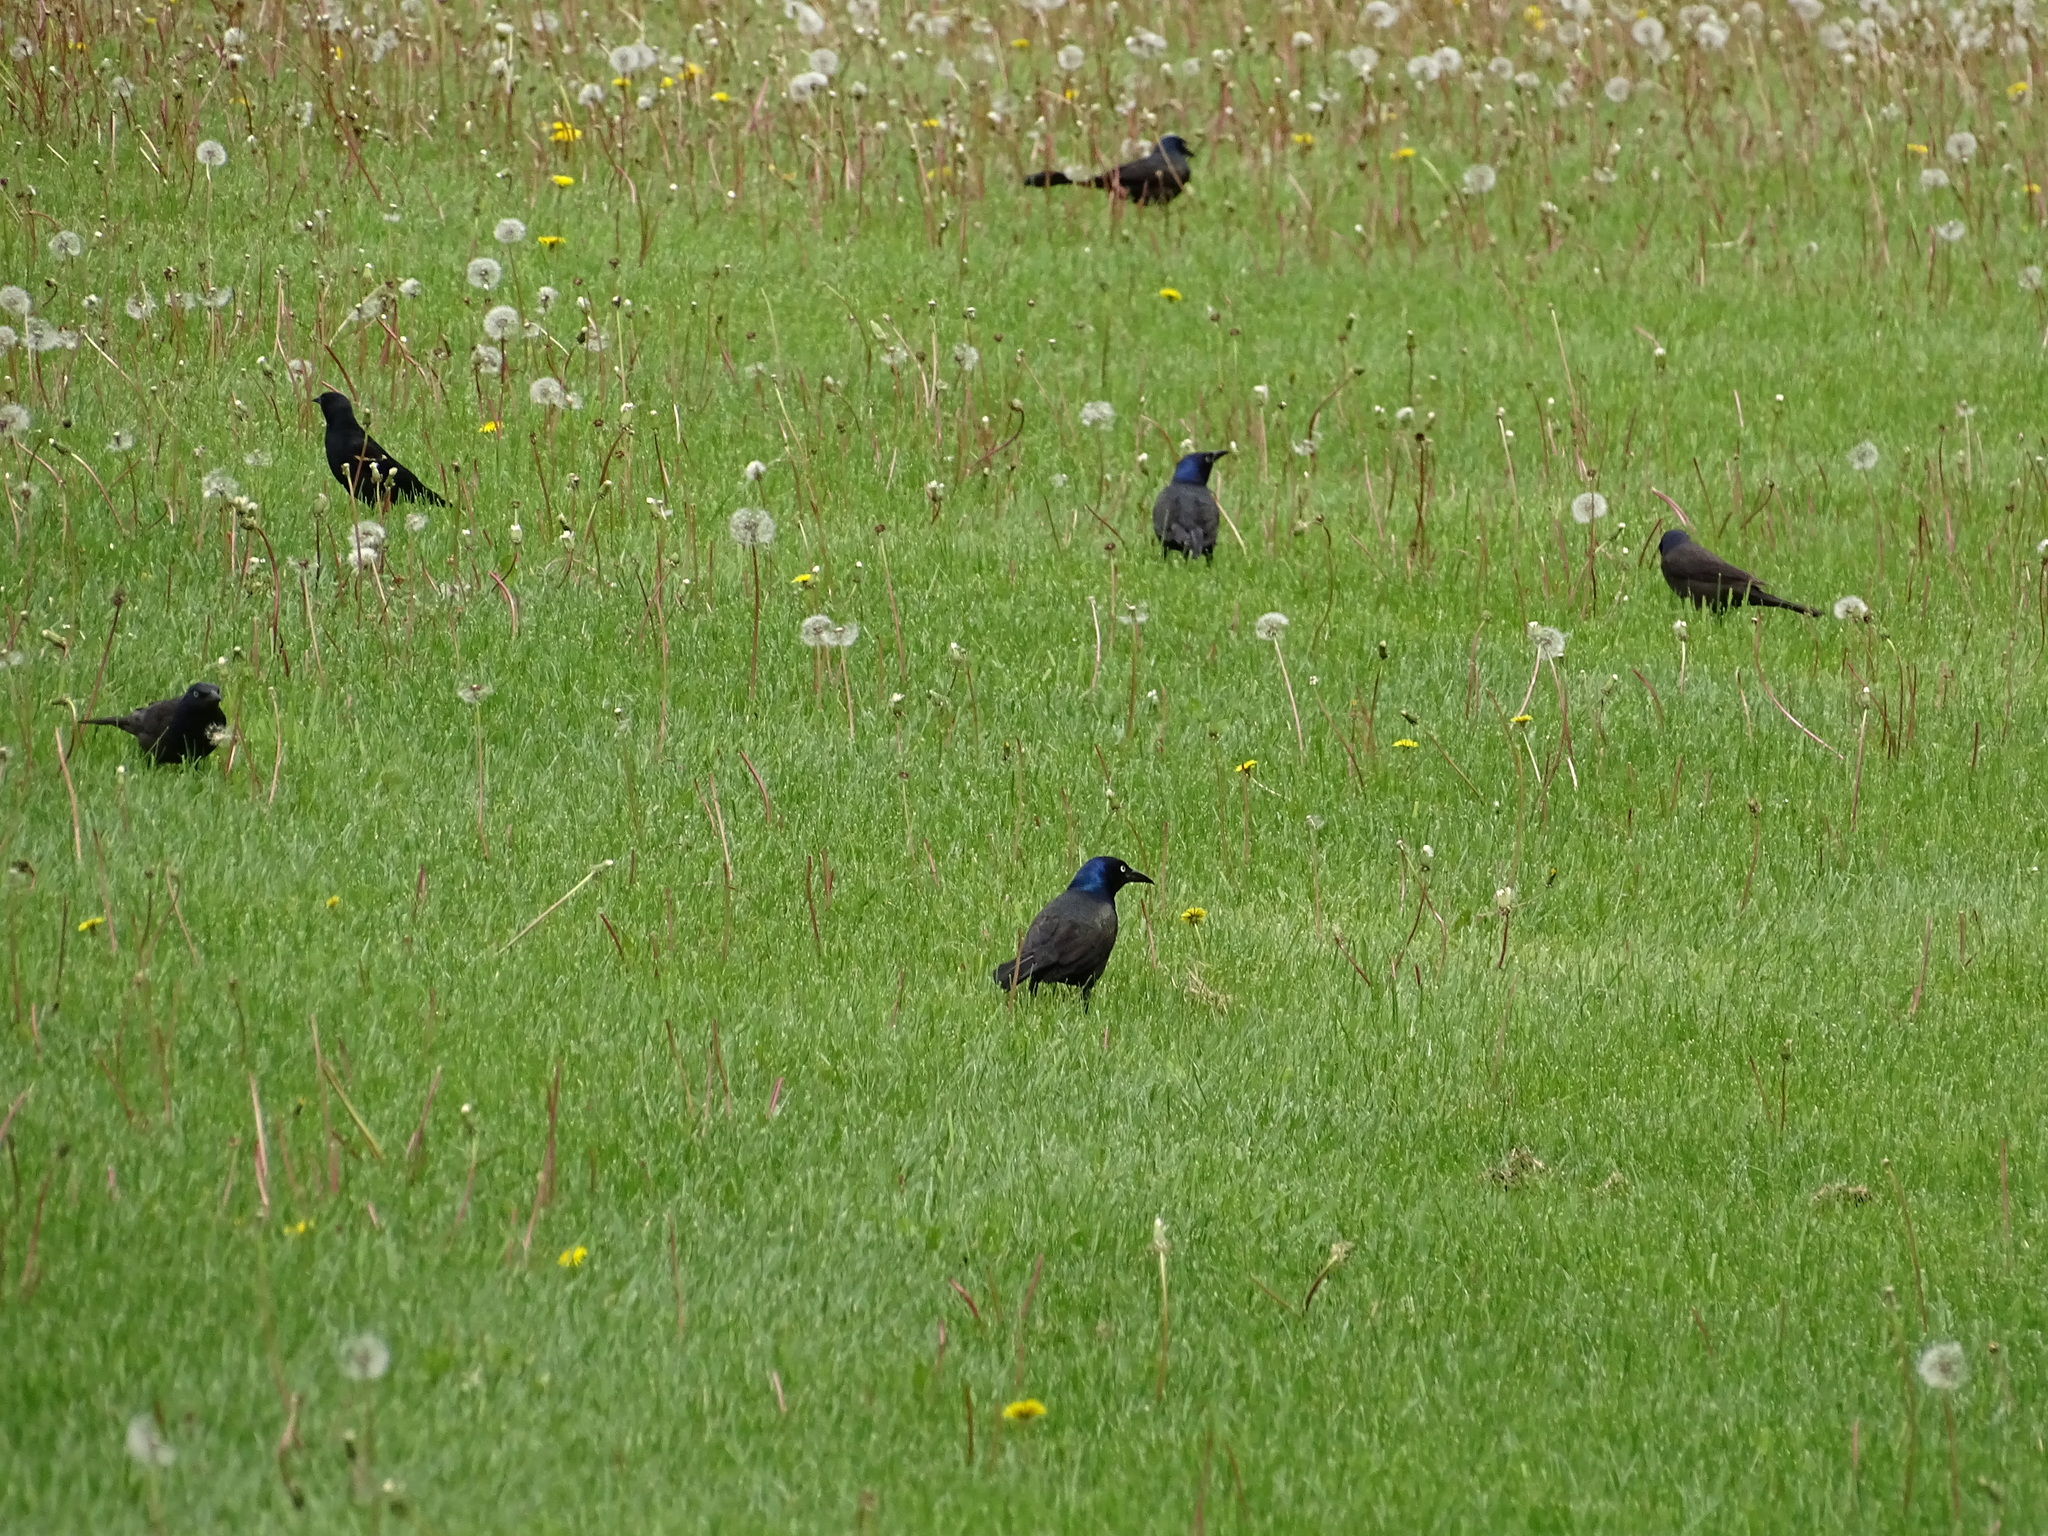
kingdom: Animalia
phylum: Chordata
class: Aves
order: Passeriformes
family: Icteridae
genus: Quiscalus
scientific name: Quiscalus quiscula
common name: Common grackle
